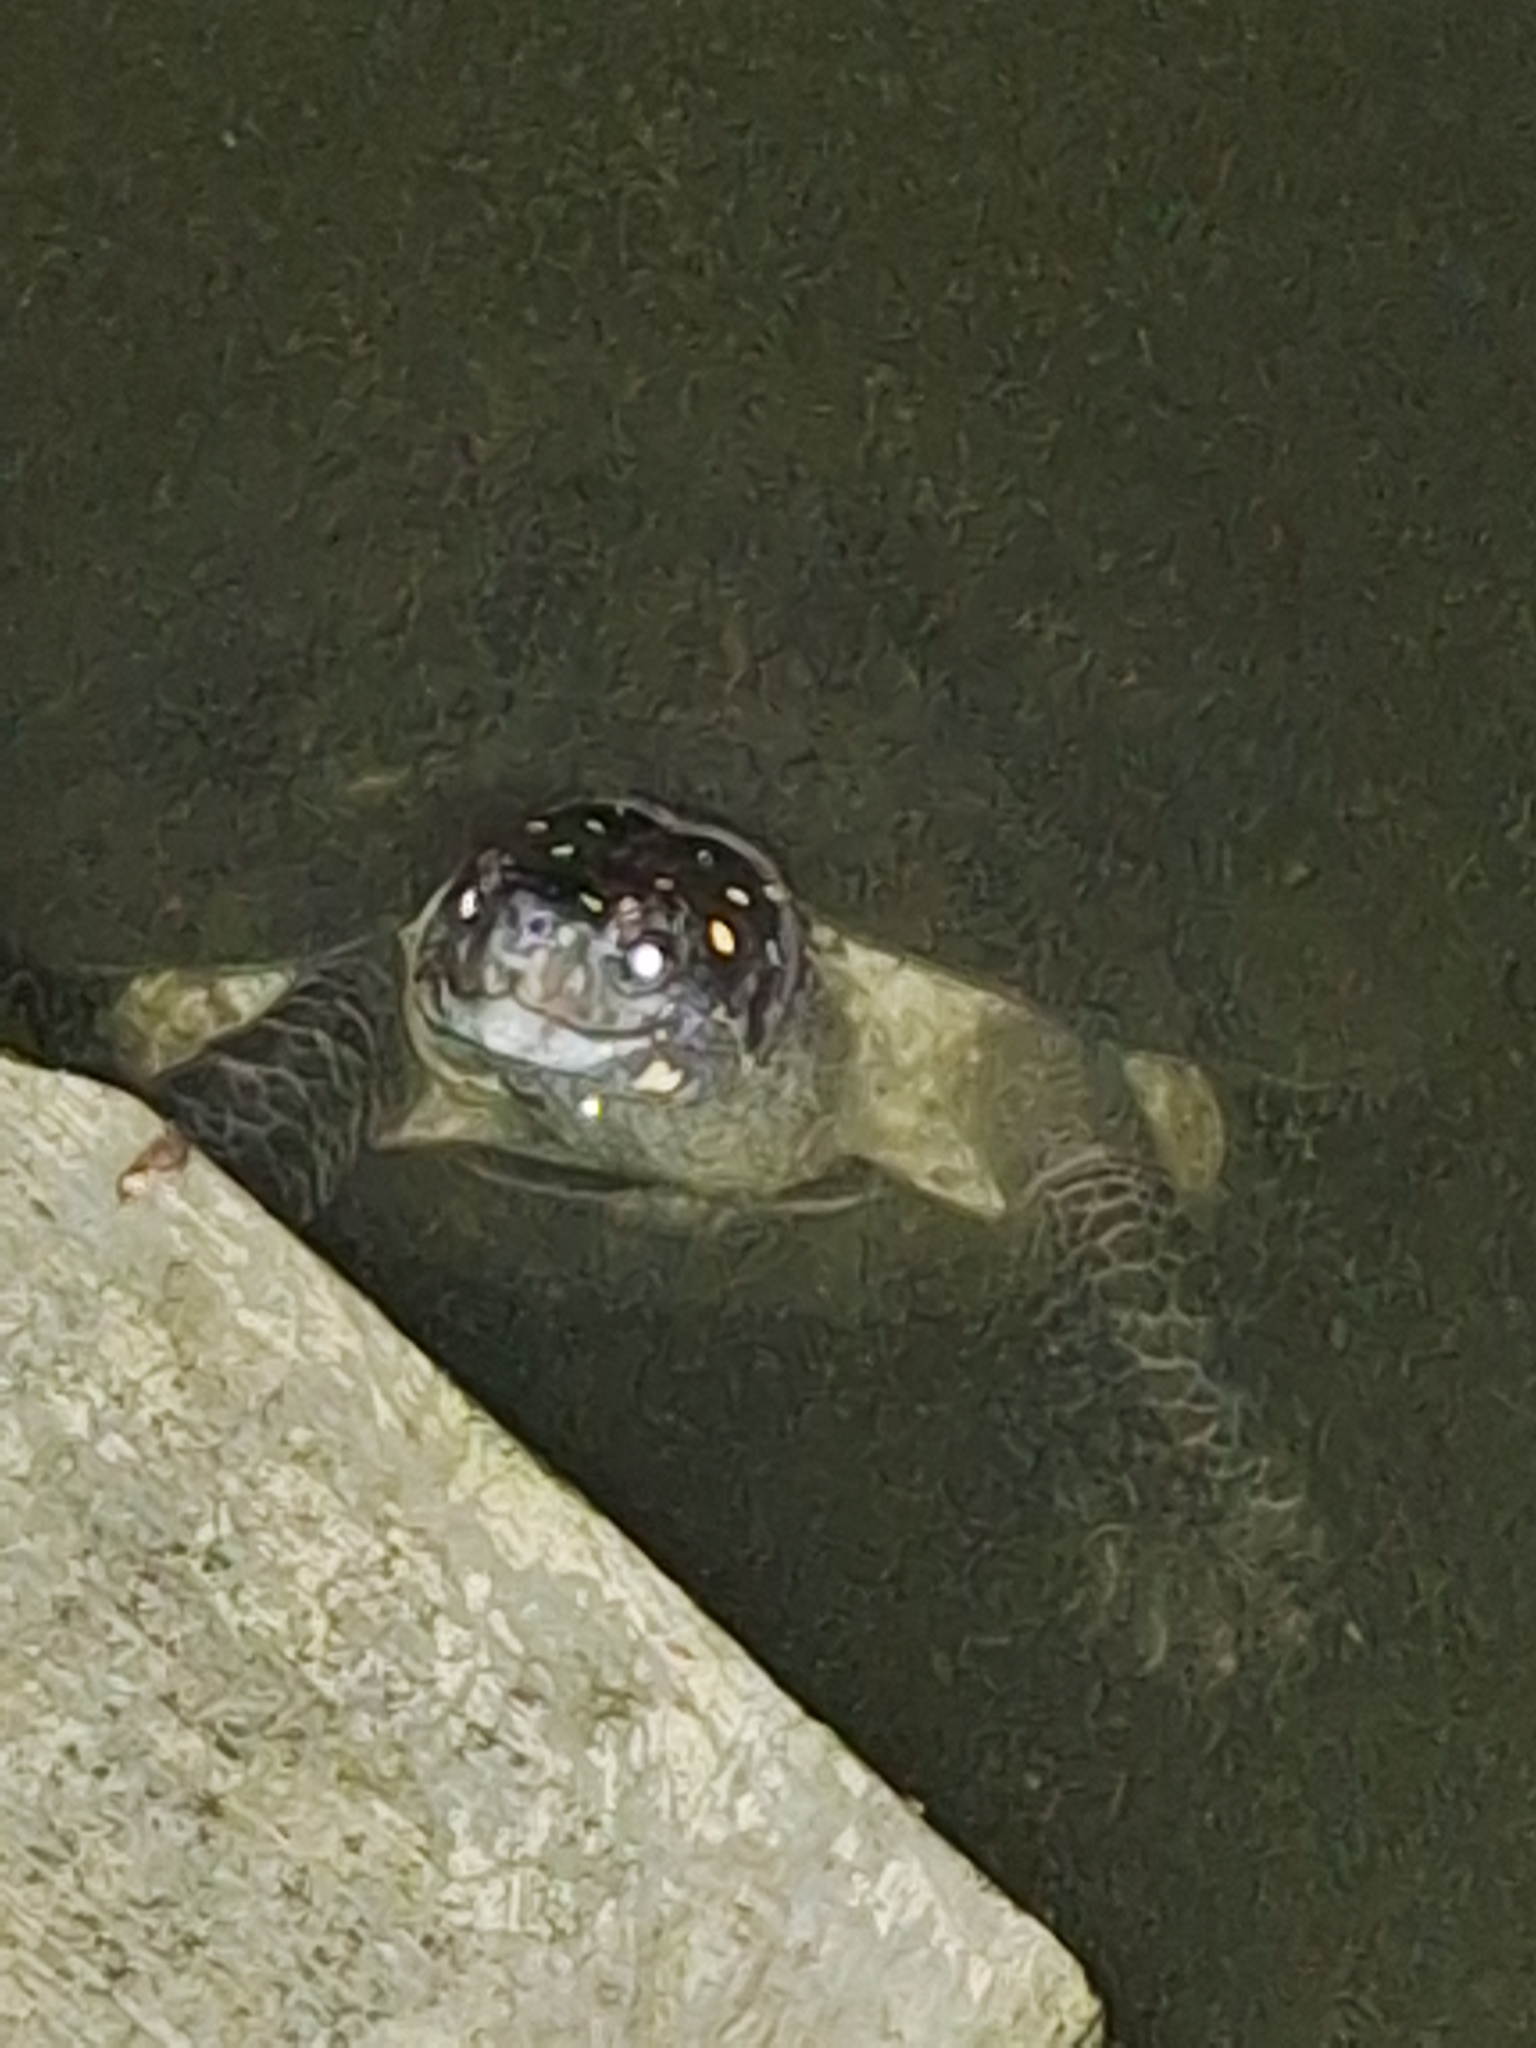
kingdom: Animalia
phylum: Chordata
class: Testudines
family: Geoemydidae
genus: Melanochelys
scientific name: Melanochelys trijuga
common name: Indian black turtle
